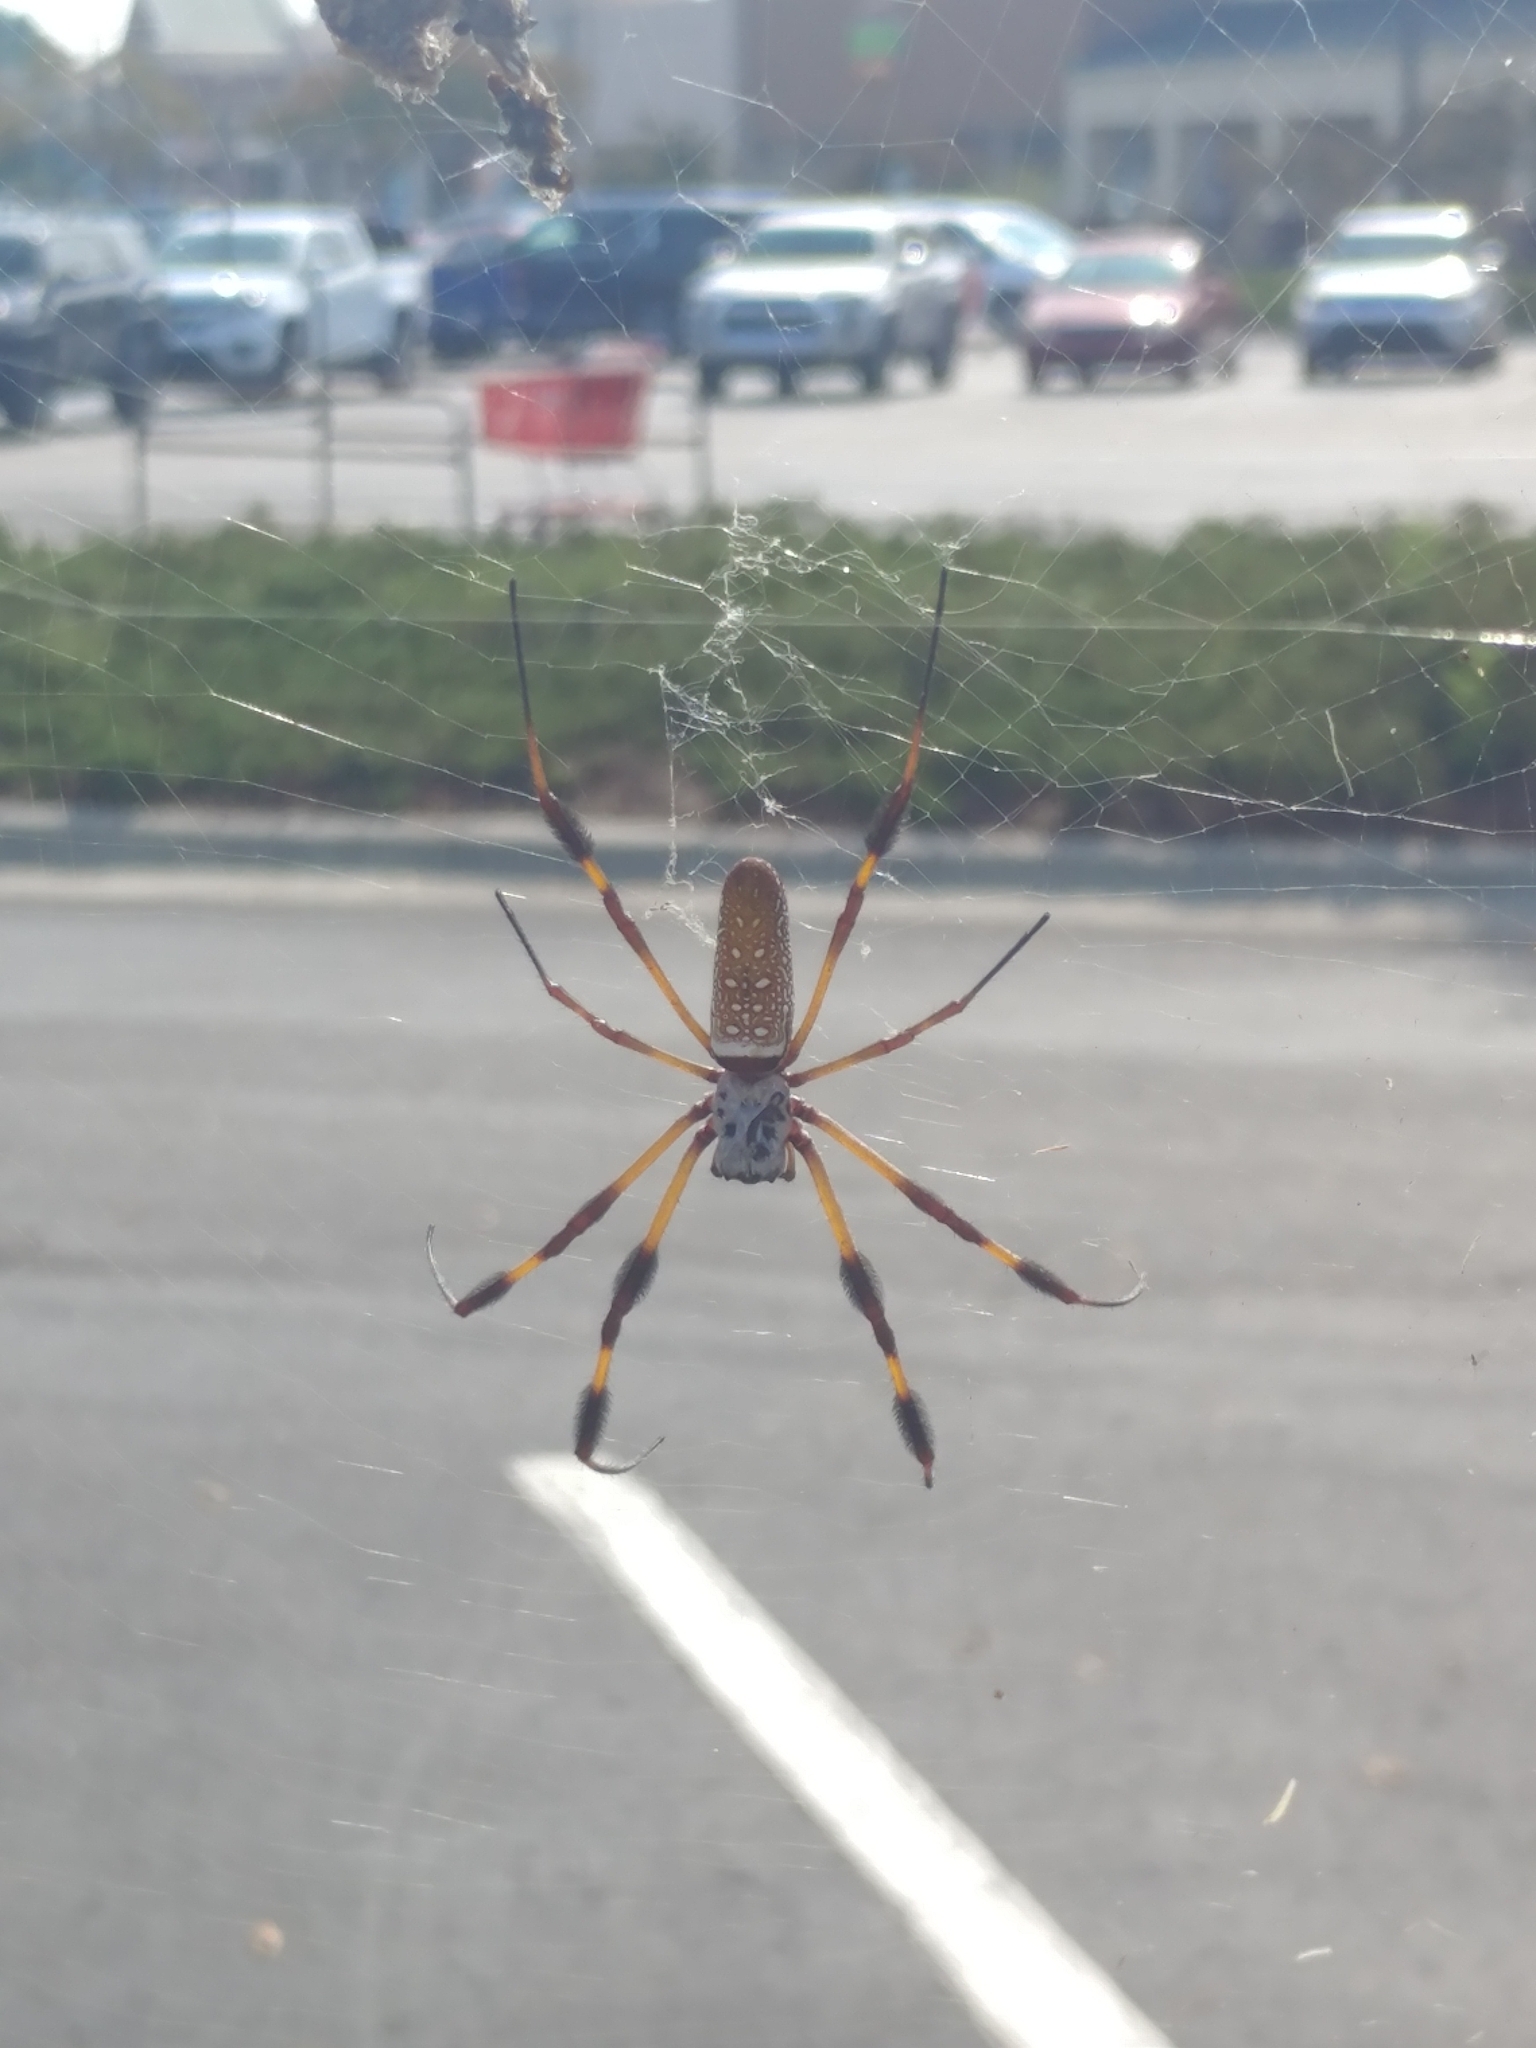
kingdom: Animalia
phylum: Arthropoda
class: Arachnida
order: Araneae
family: Araneidae
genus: Trichonephila
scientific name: Trichonephila clavipes
